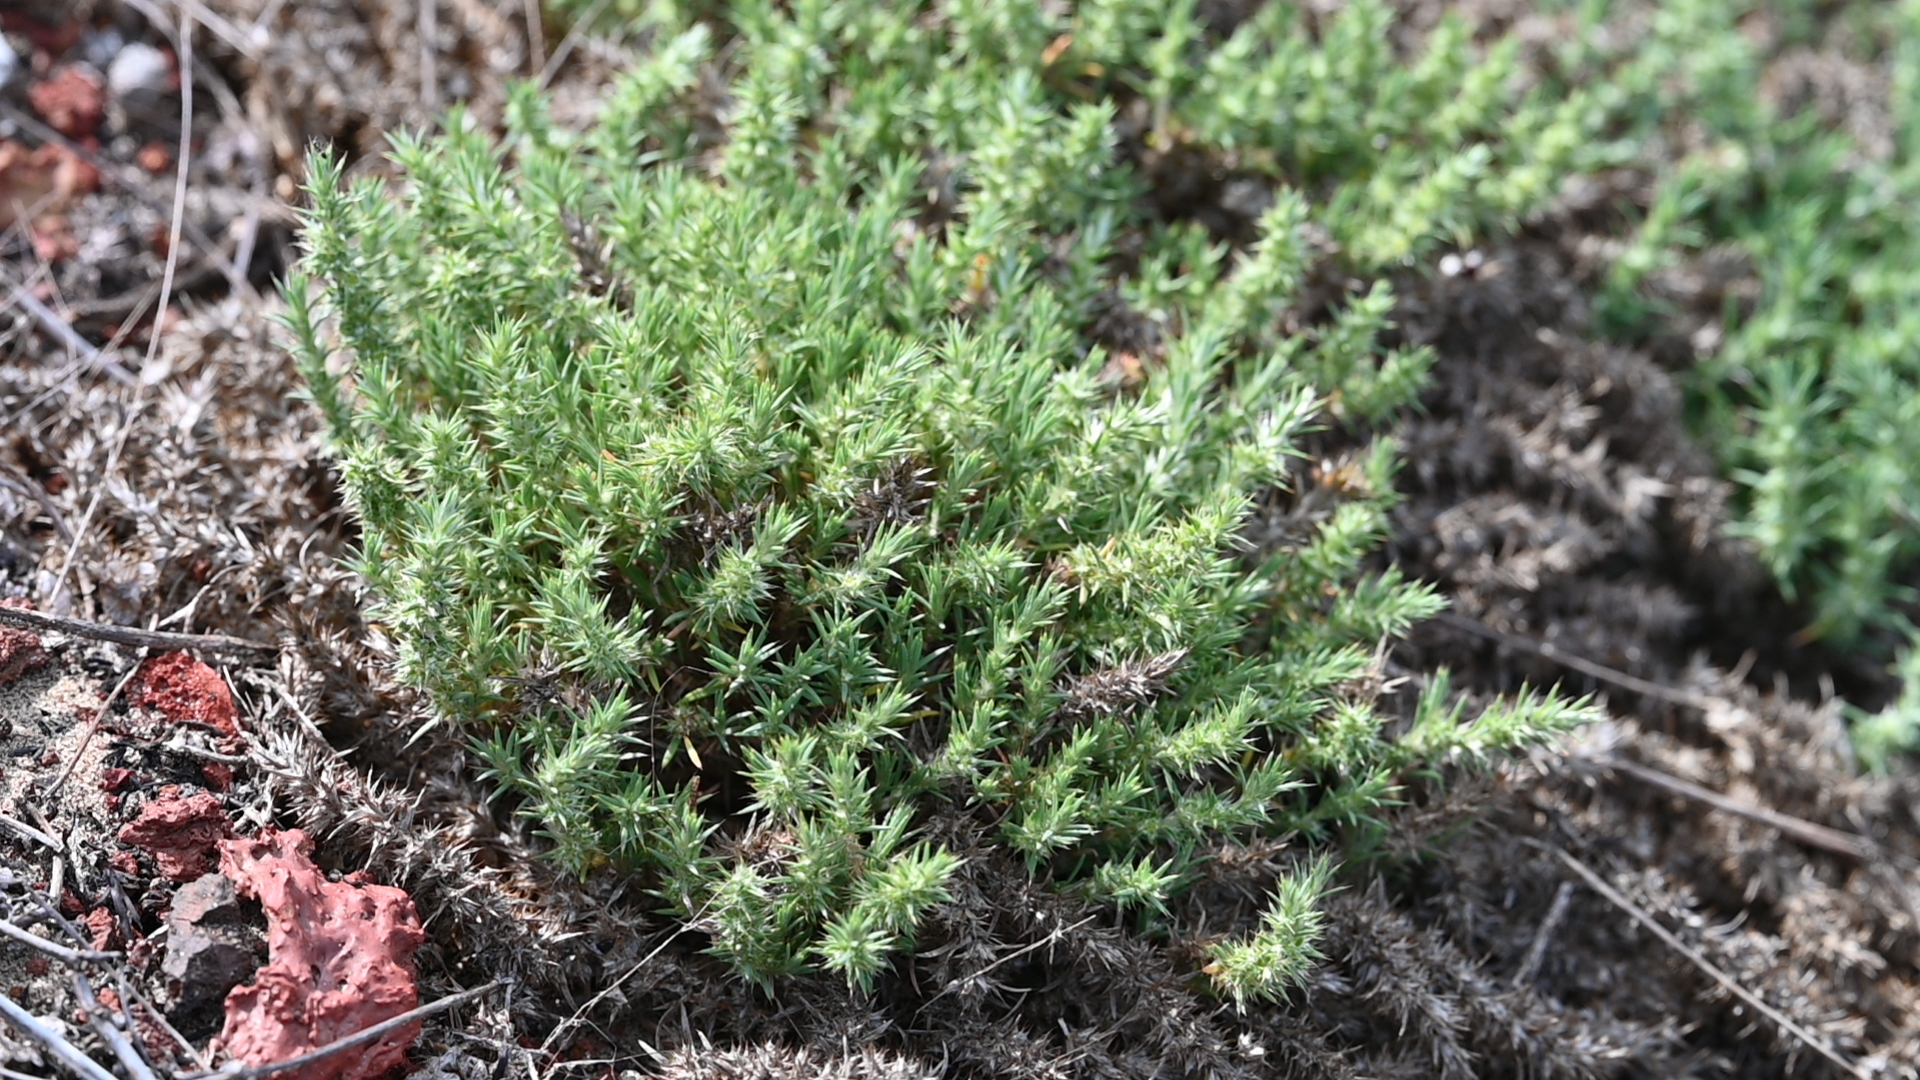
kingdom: Plantae
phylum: Tracheophyta
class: Magnoliopsida
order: Caryophyllales
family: Caryophyllaceae
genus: Cardionema
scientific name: Cardionema ramosissima
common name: Sandcarpet
